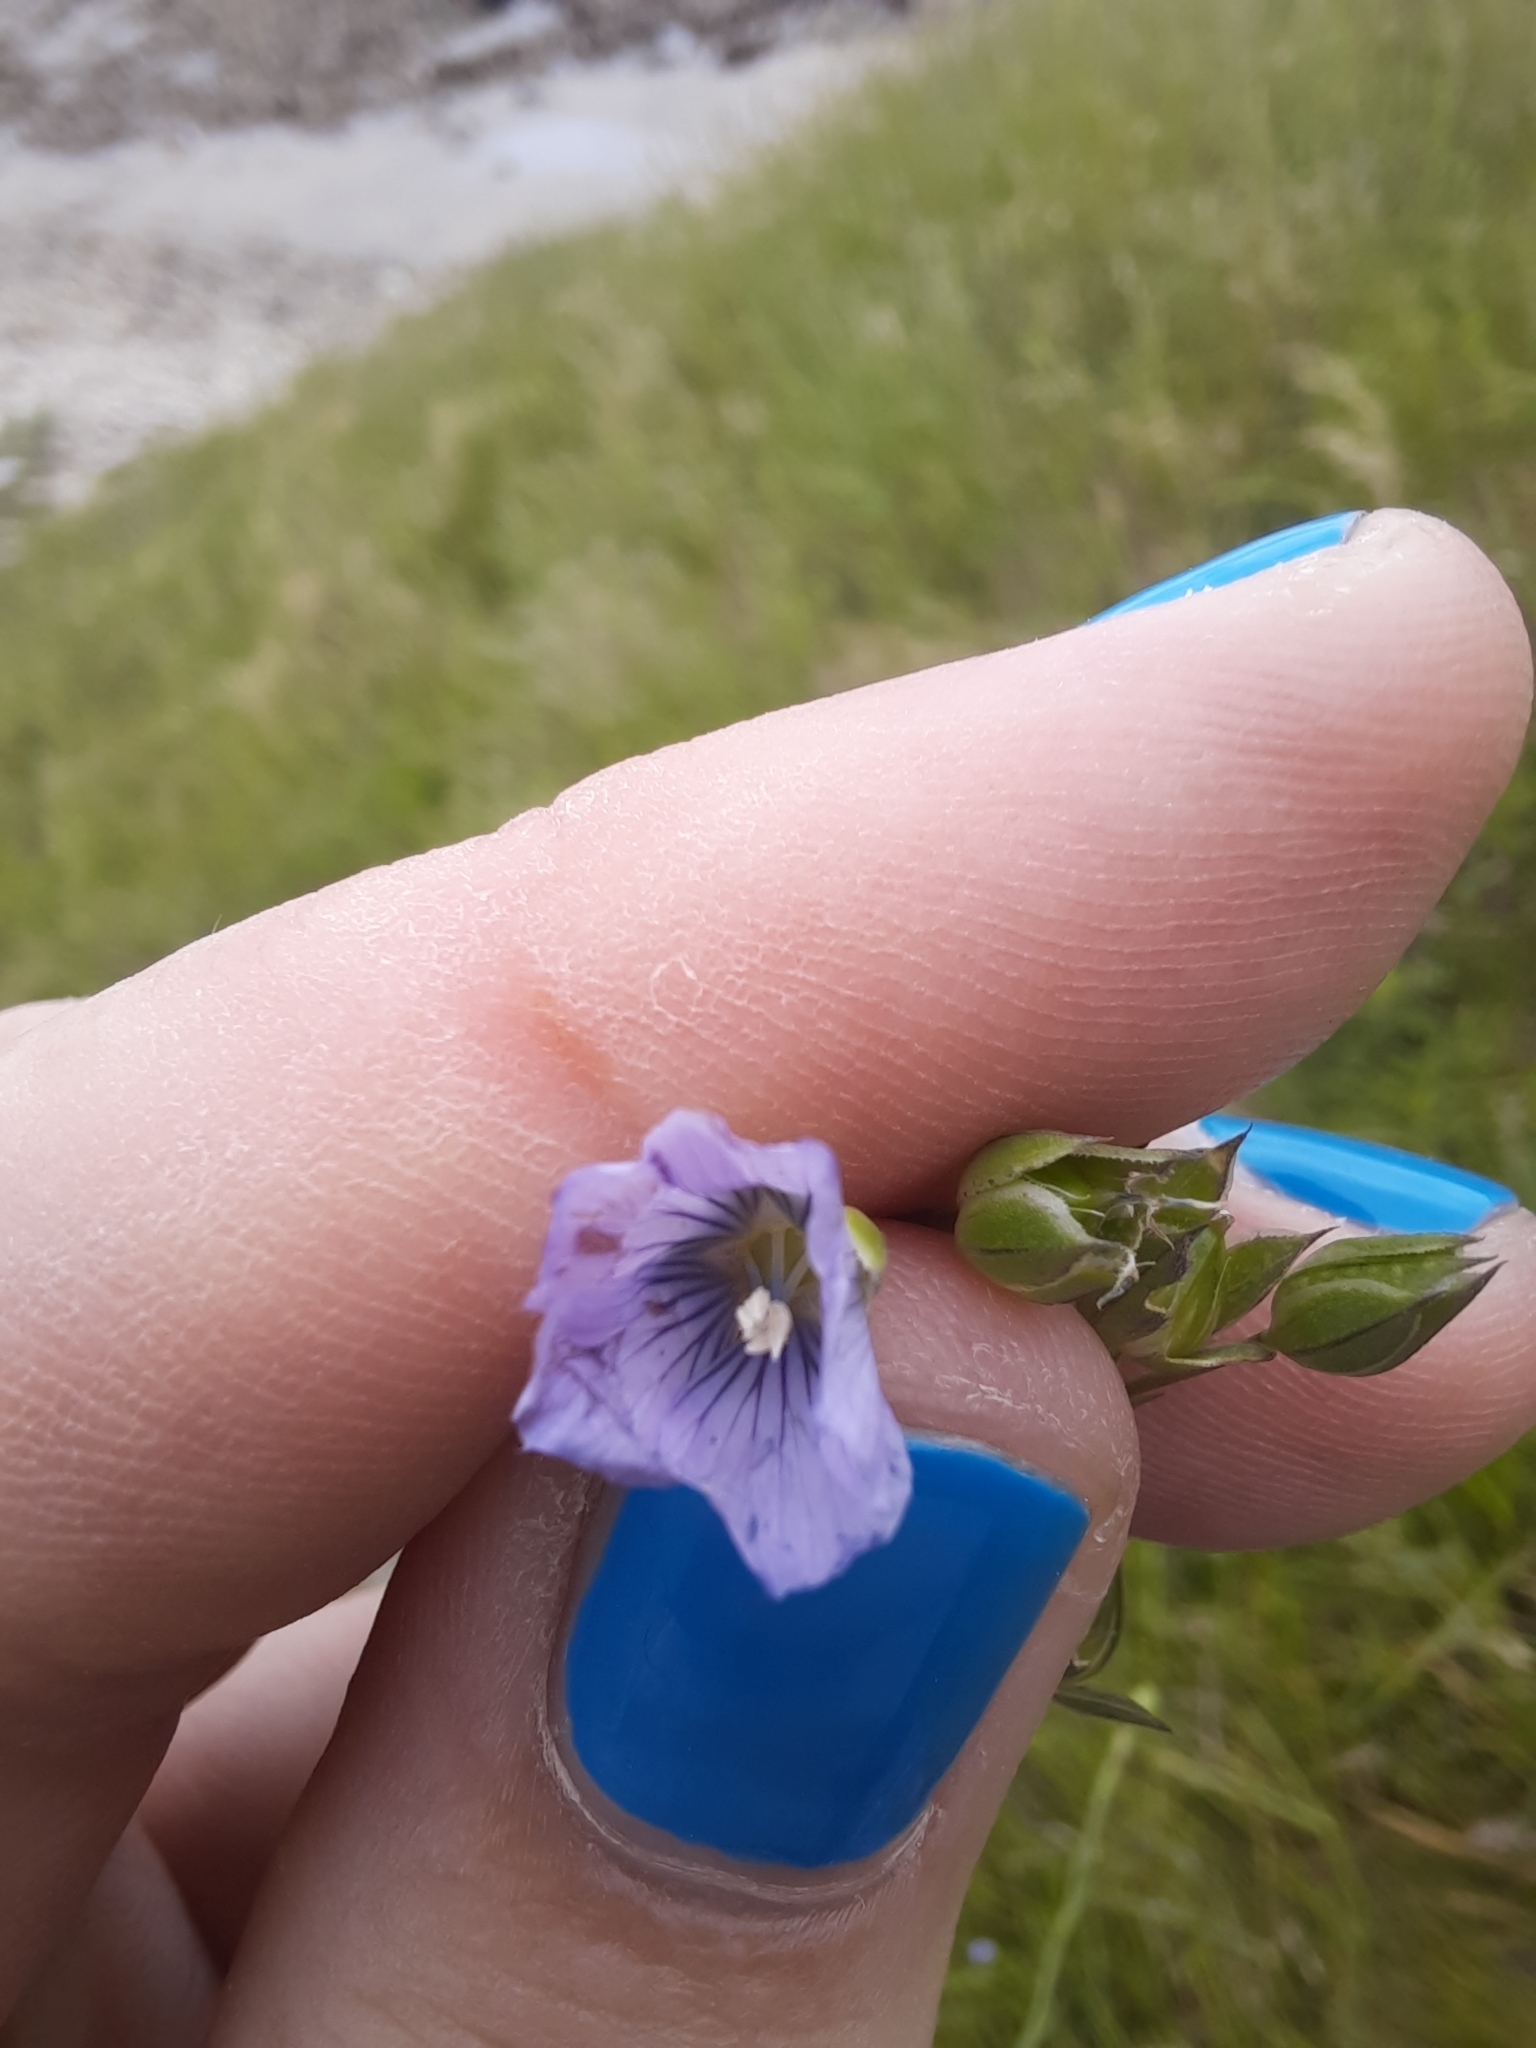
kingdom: Plantae
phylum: Tracheophyta
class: Magnoliopsida
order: Malpighiales
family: Linaceae
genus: Linum
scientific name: Linum usitatissimum
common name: Flax
